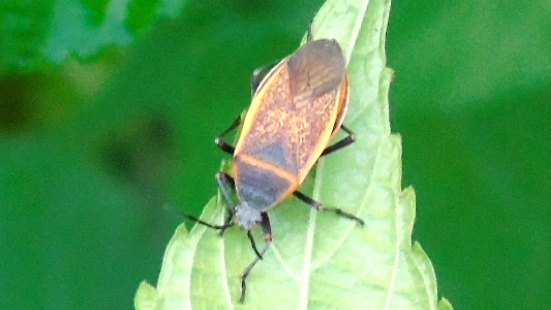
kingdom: Animalia
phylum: Arthropoda
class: Insecta
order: Hemiptera
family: Largidae
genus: Largus
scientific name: Largus
